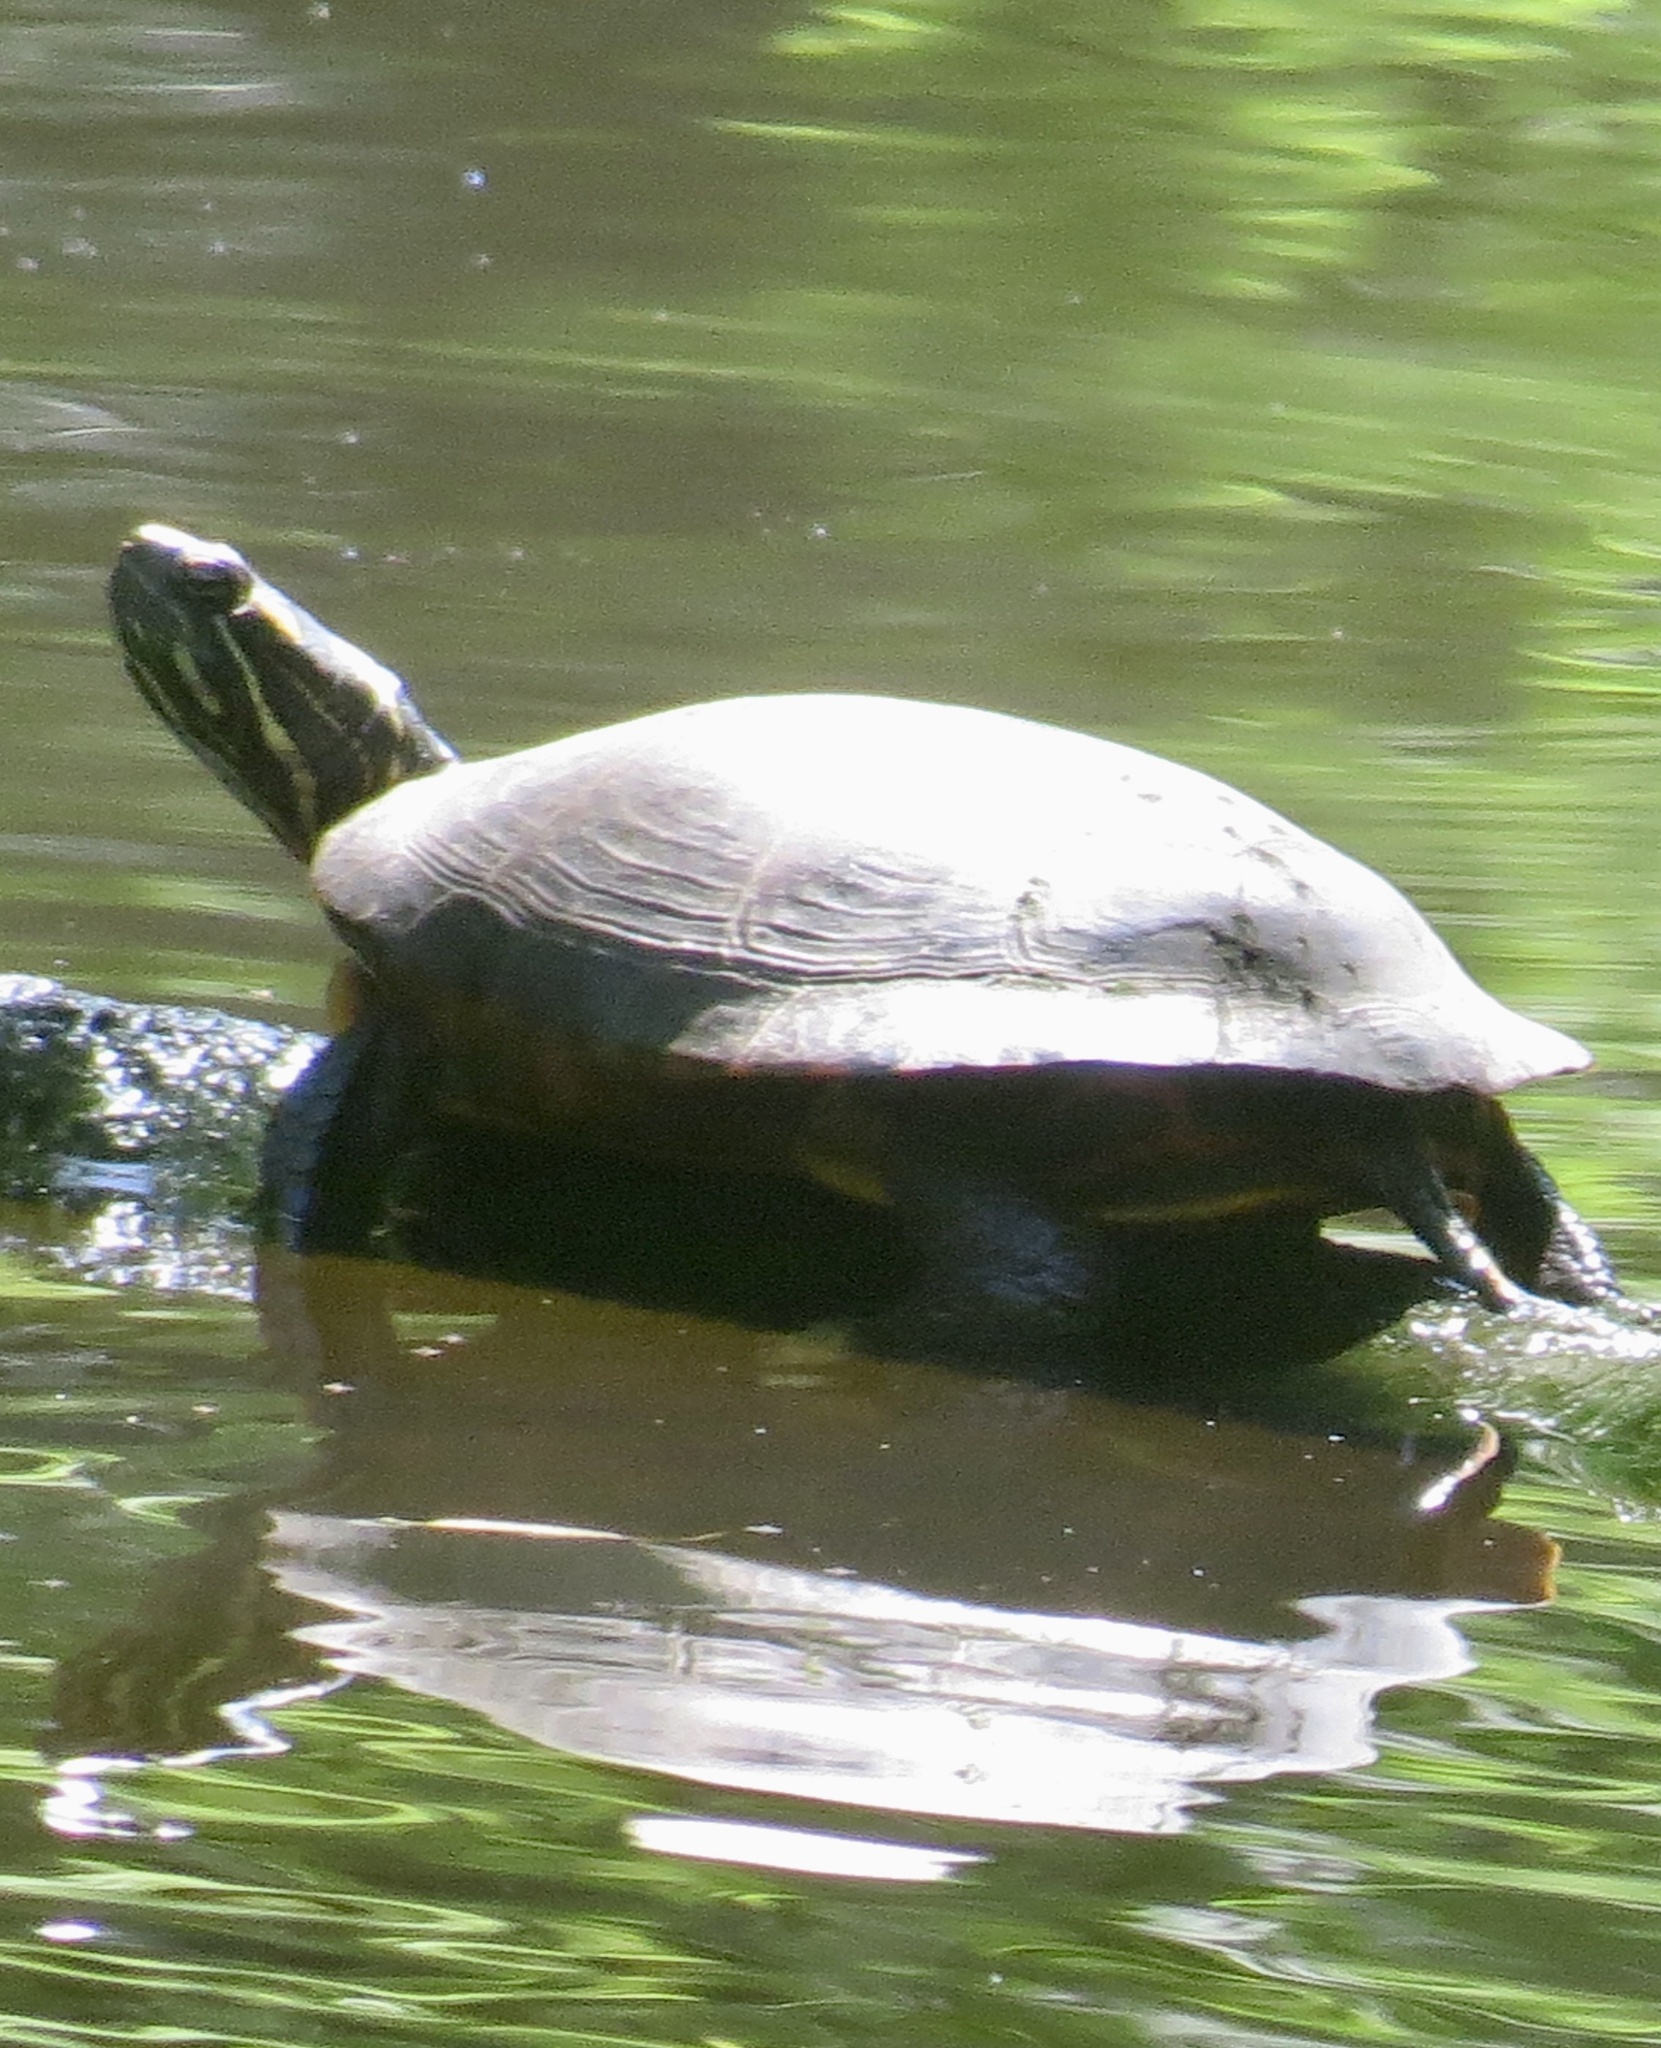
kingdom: Animalia
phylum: Chordata
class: Testudines
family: Emydidae
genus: Chrysemys
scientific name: Chrysemys picta
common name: Painted turtle
